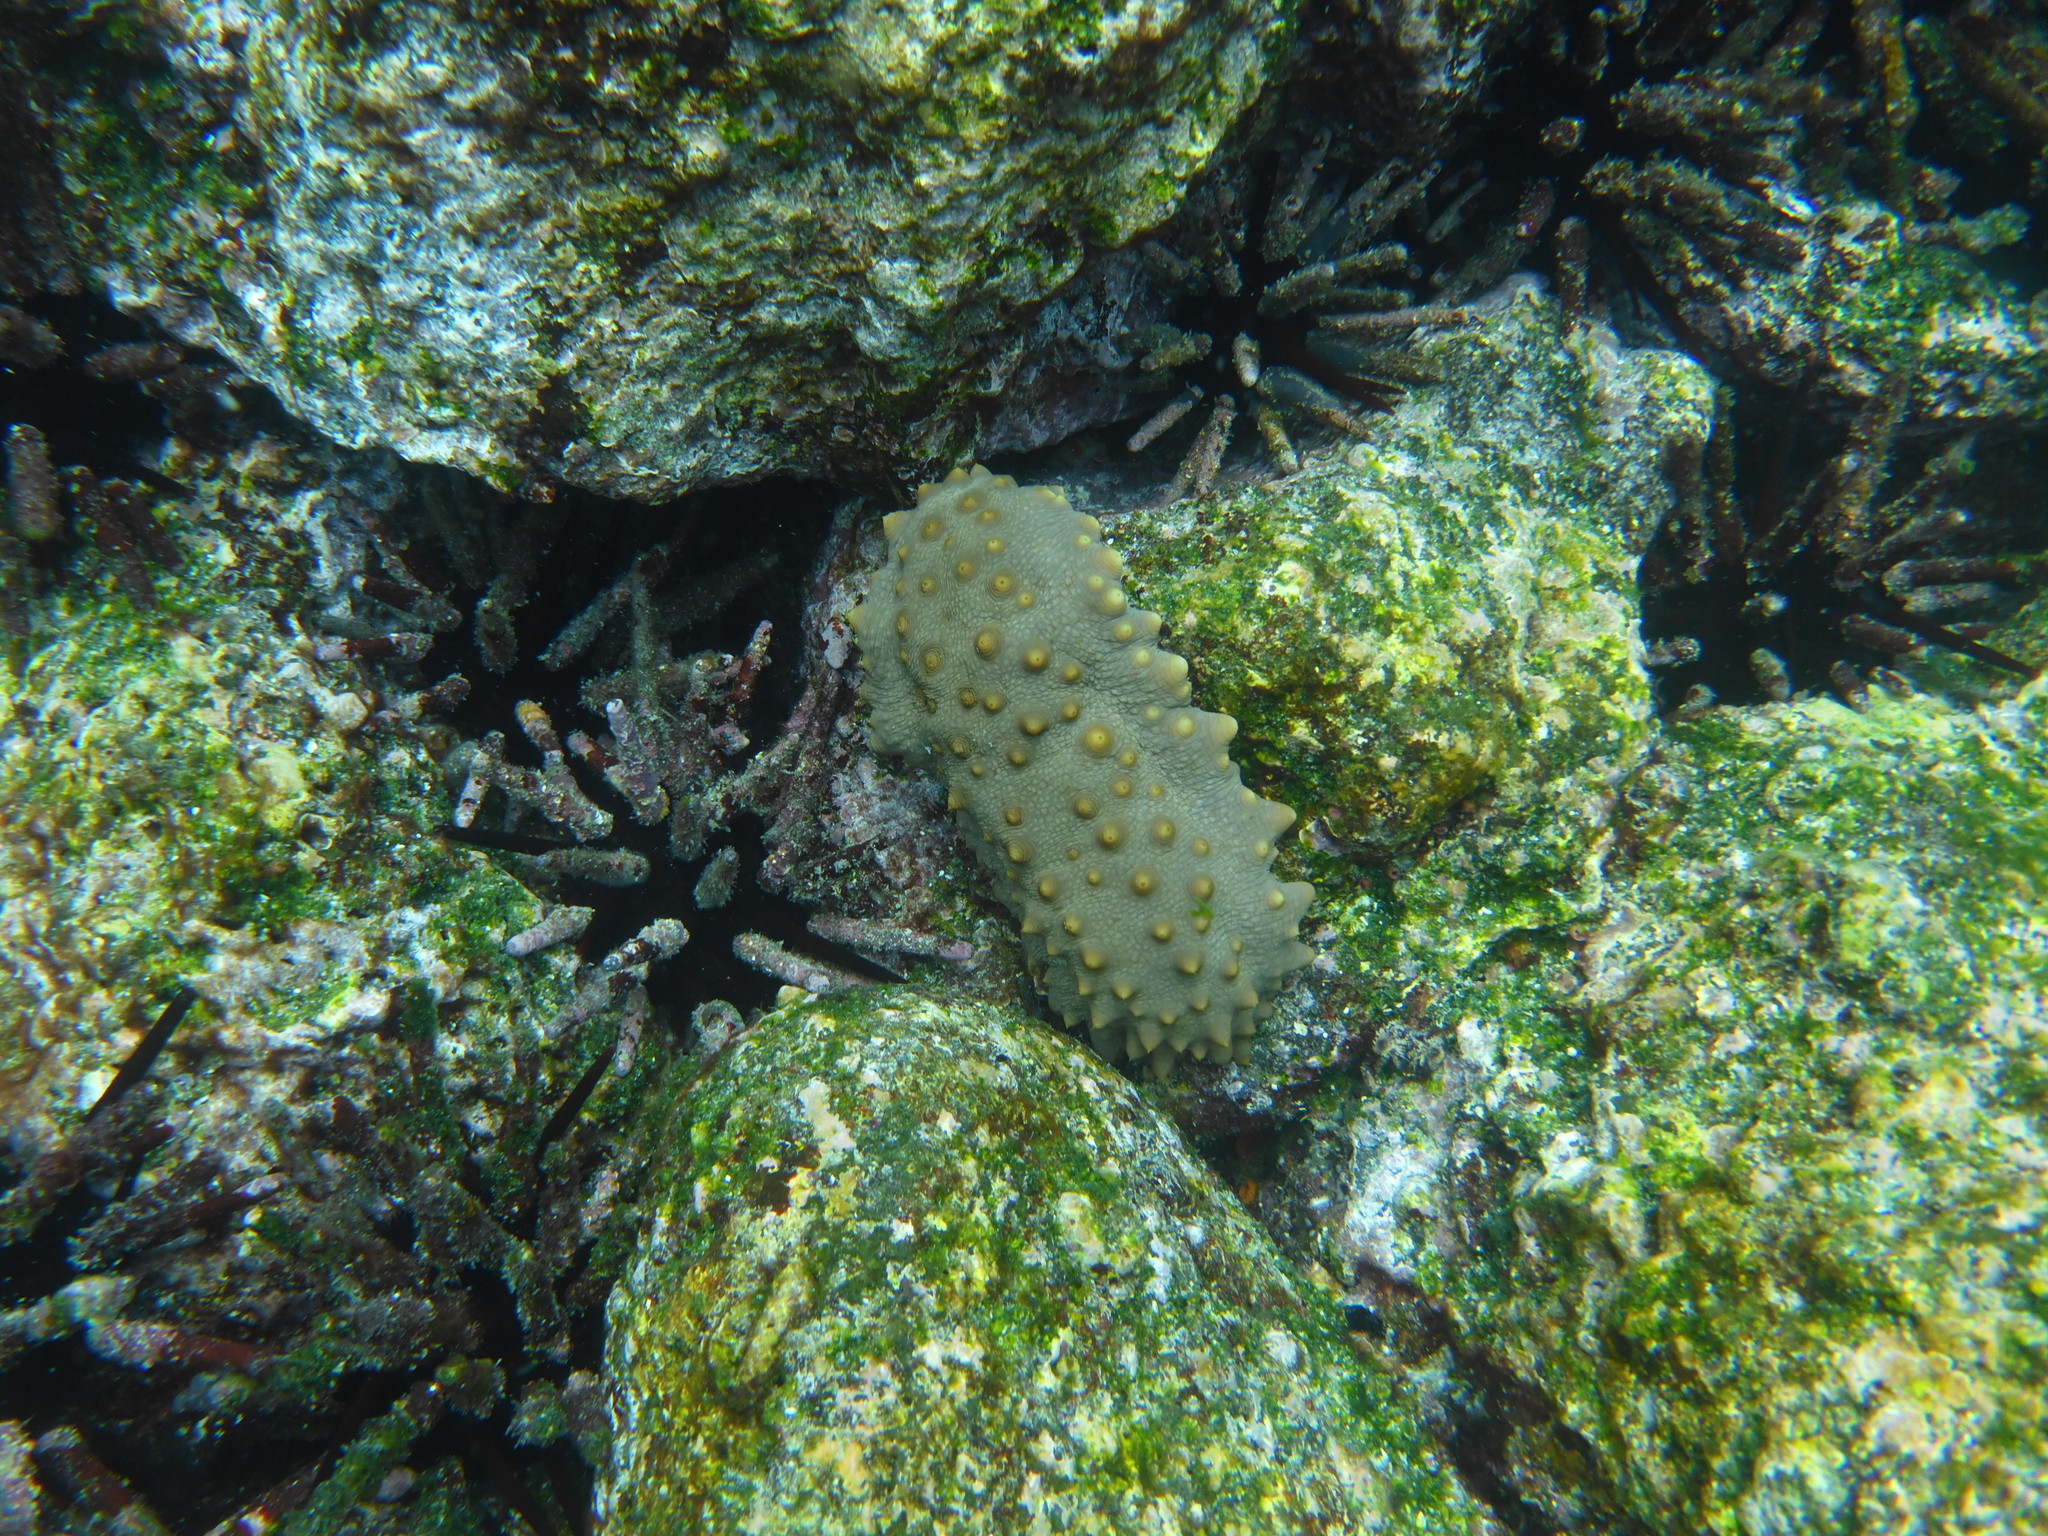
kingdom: Animalia
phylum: Echinodermata
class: Echinoidea
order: Cidaroida
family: Cidaridae
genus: Eucidaris
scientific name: Eucidaris galapagensis
